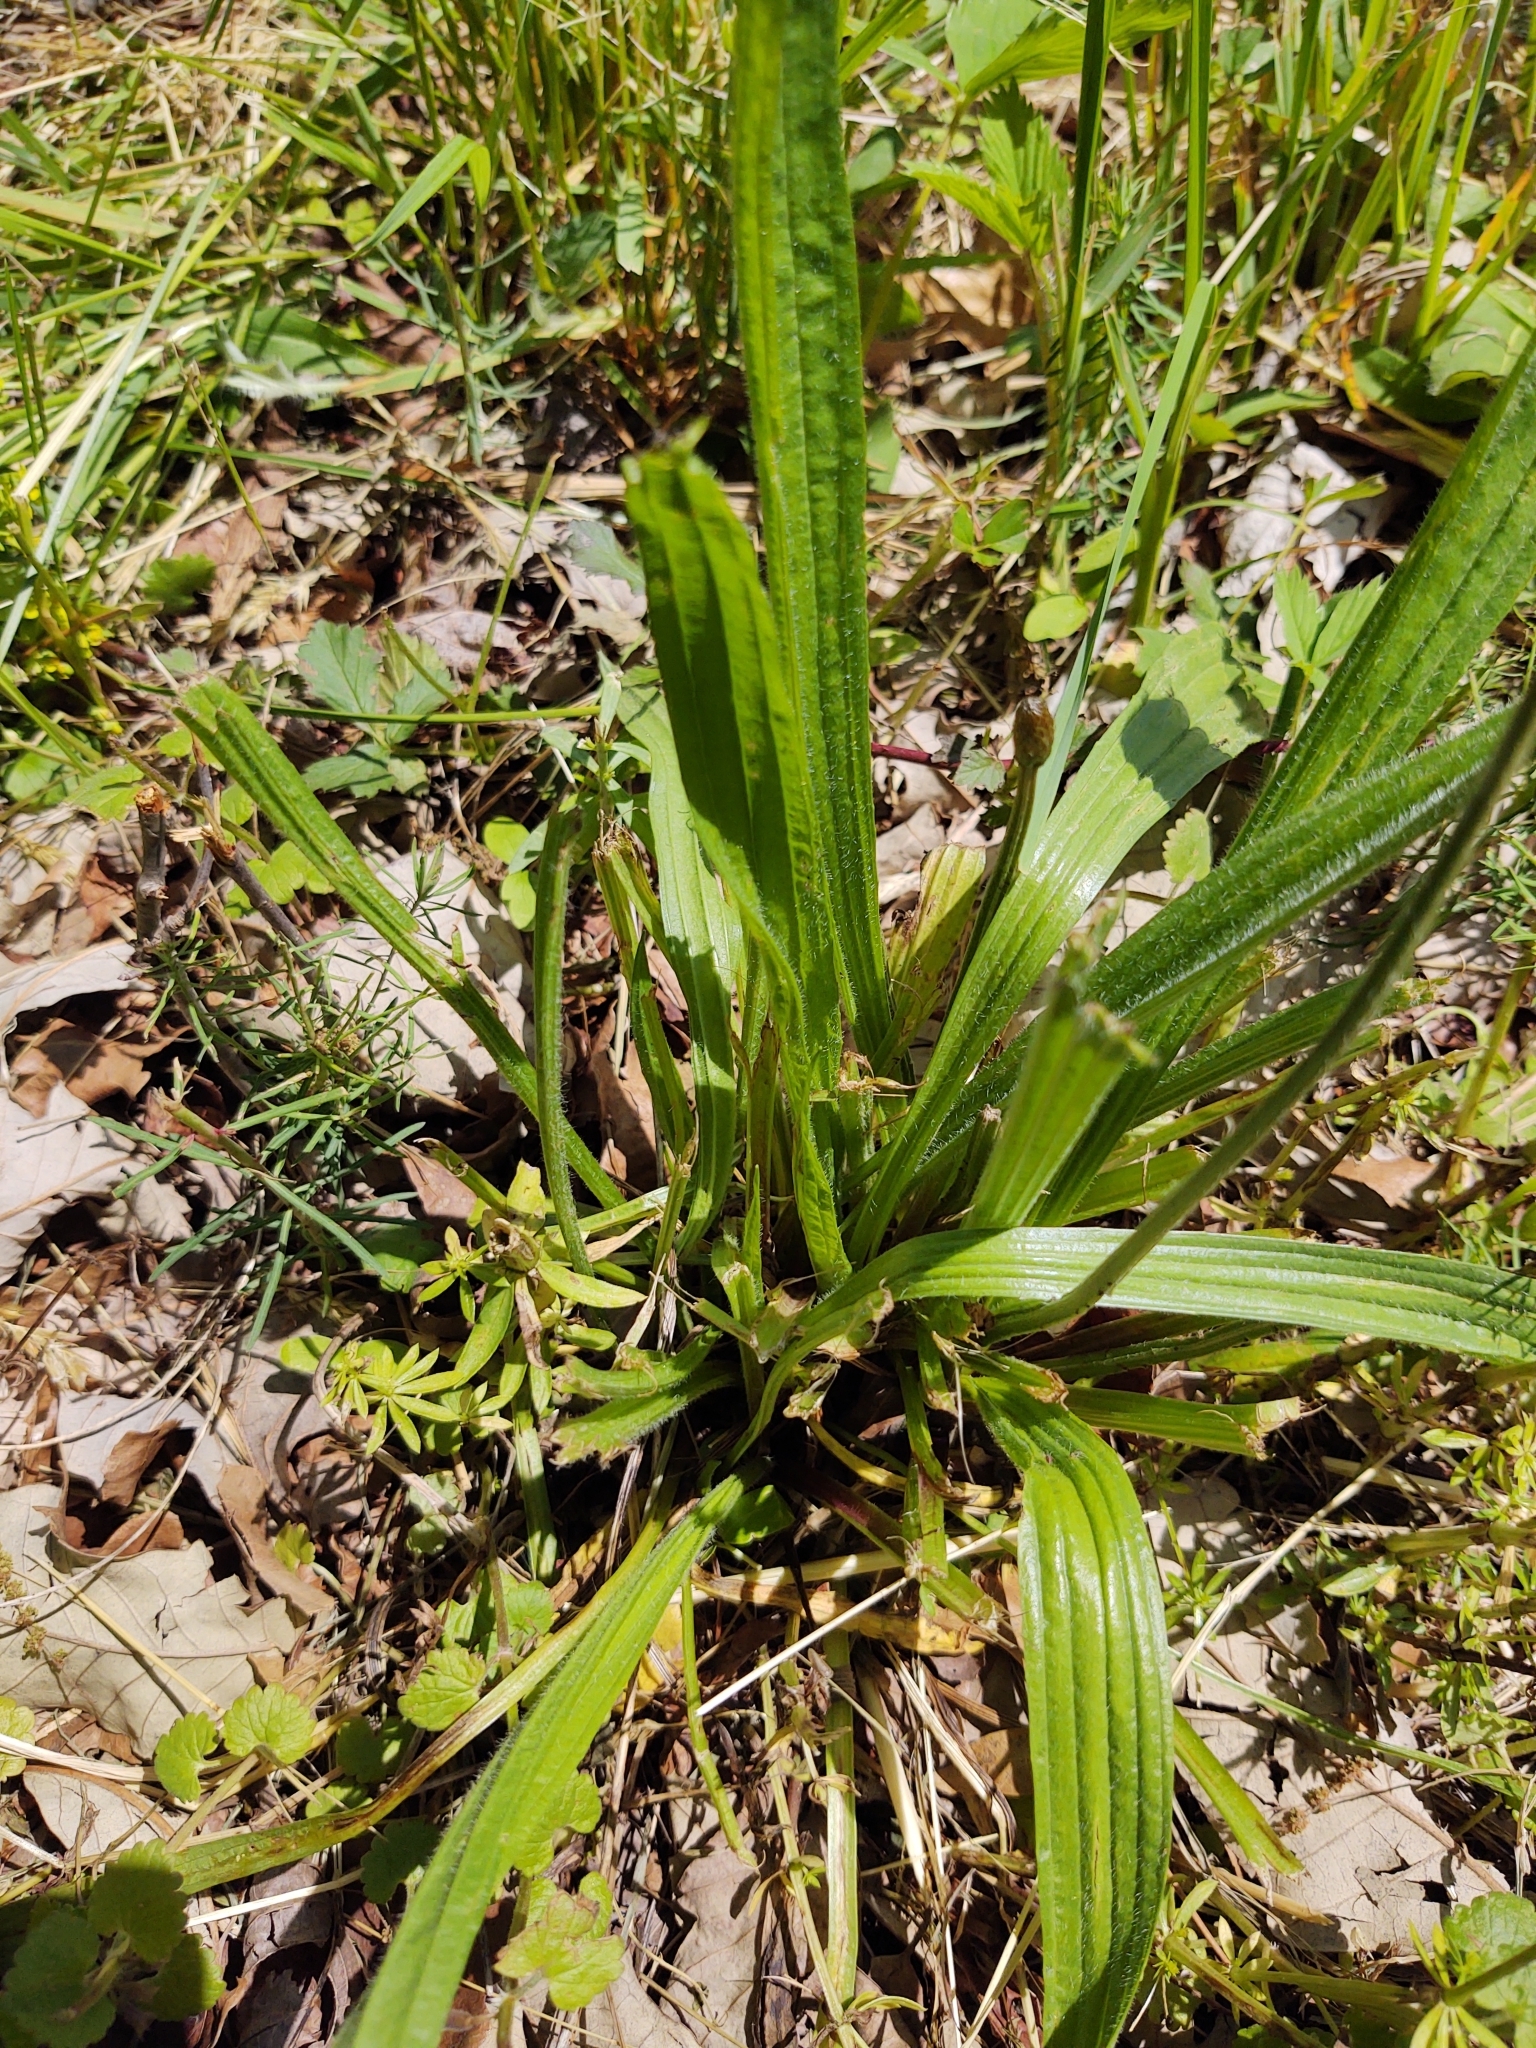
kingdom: Plantae
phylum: Tracheophyta
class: Magnoliopsida
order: Lamiales
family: Plantaginaceae
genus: Plantago
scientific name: Plantago lanceolata
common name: Ribwort plantain
